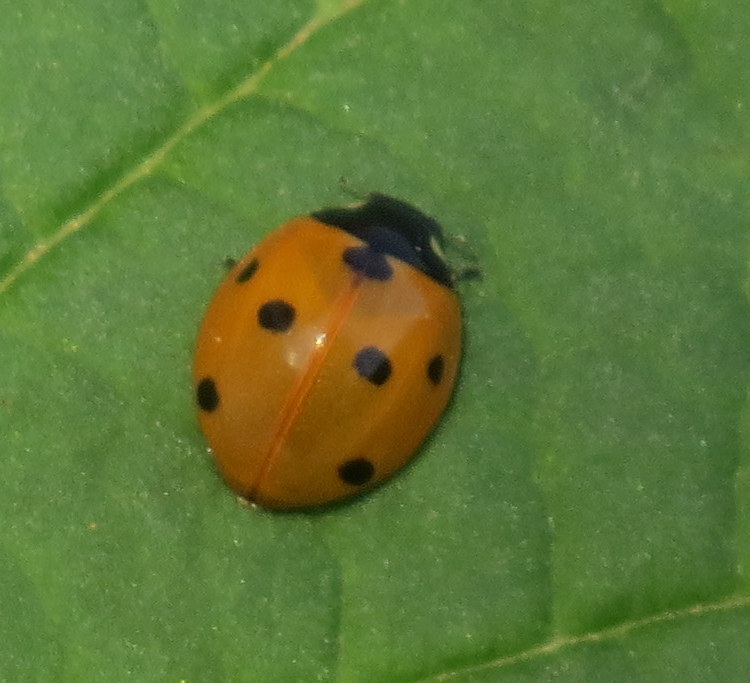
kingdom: Animalia
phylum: Arthropoda
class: Insecta
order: Coleoptera
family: Coccinellidae
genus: Coccinella
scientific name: Coccinella septempunctata
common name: Sevenspotted lady beetle
